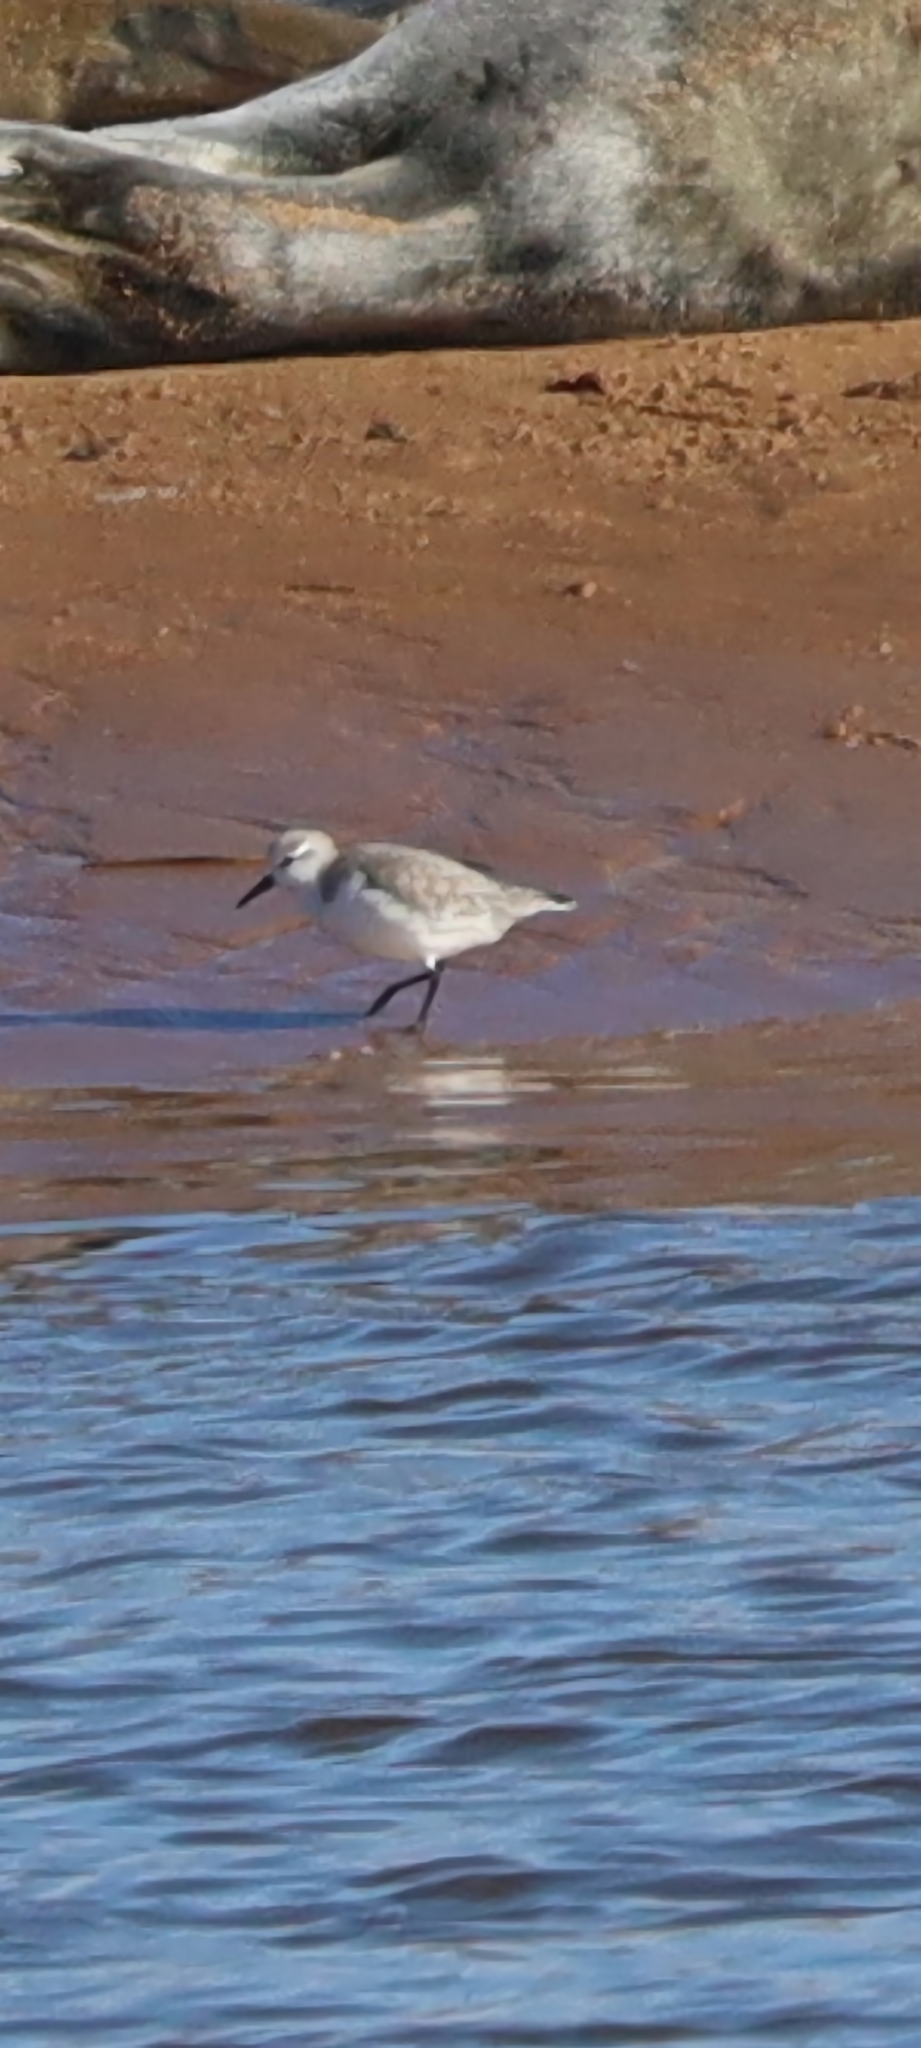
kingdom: Animalia
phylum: Chordata
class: Aves
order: Charadriiformes
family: Scolopacidae
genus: Calidris
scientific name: Calidris alba
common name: Sanderling
